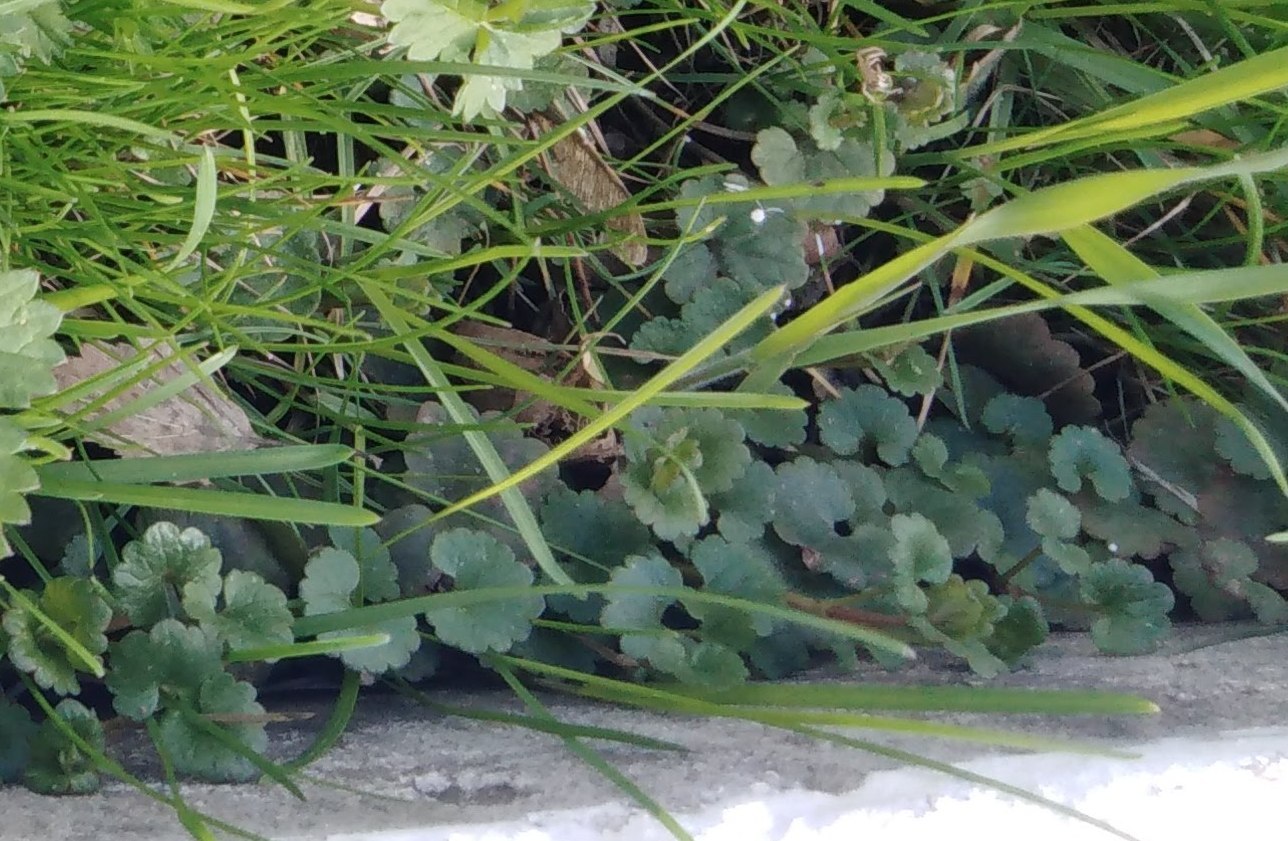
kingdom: Plantae
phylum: Tracheophyta
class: Magnoliopsida
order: Lamiales
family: Lamiaceae
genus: Glechoma
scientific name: Glechoma hederacea
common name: Ground ivy
